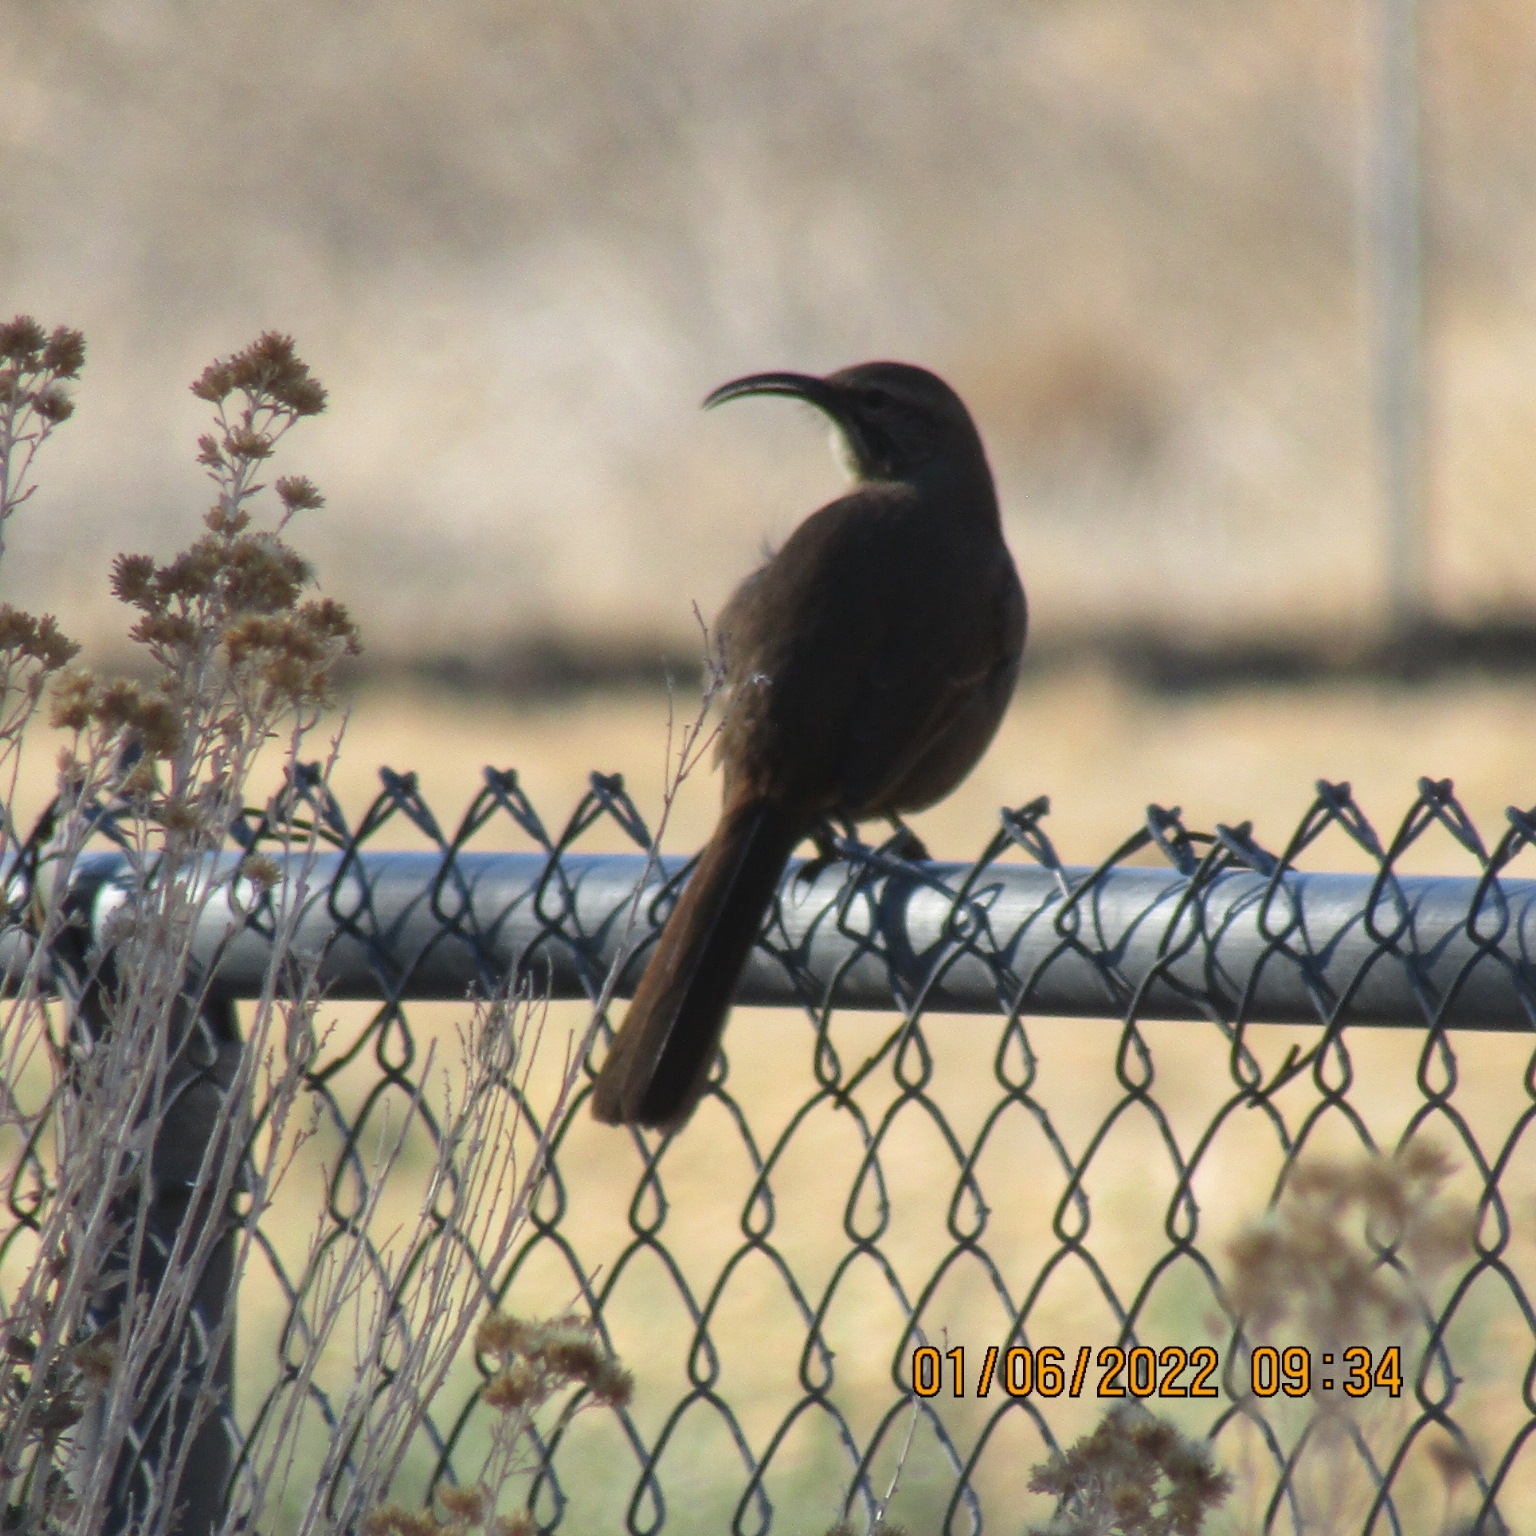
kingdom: Animalia
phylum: Chordata
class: Aves
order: Passeriformes
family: Mimidae
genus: Toxostoma
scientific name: Toxostoma redivivum
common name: California thrasher
